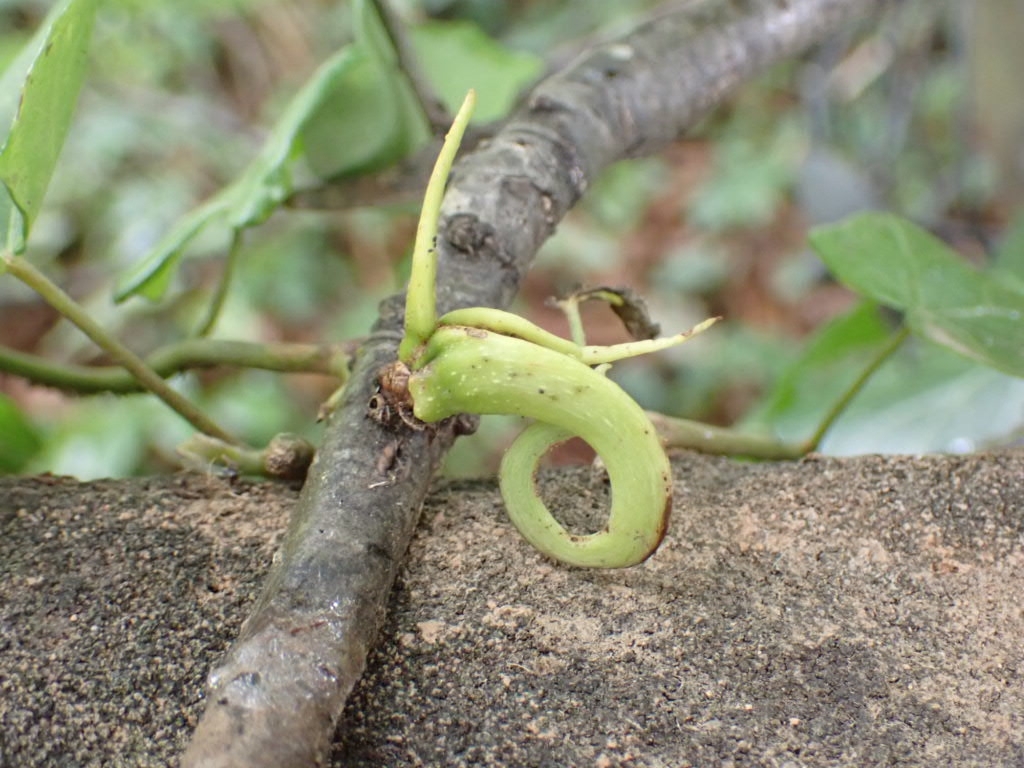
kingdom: Animalia
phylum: Arthropoda
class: Insecta
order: Hymenoptera
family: Cynipidae
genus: Andricus
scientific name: Andricus aries
